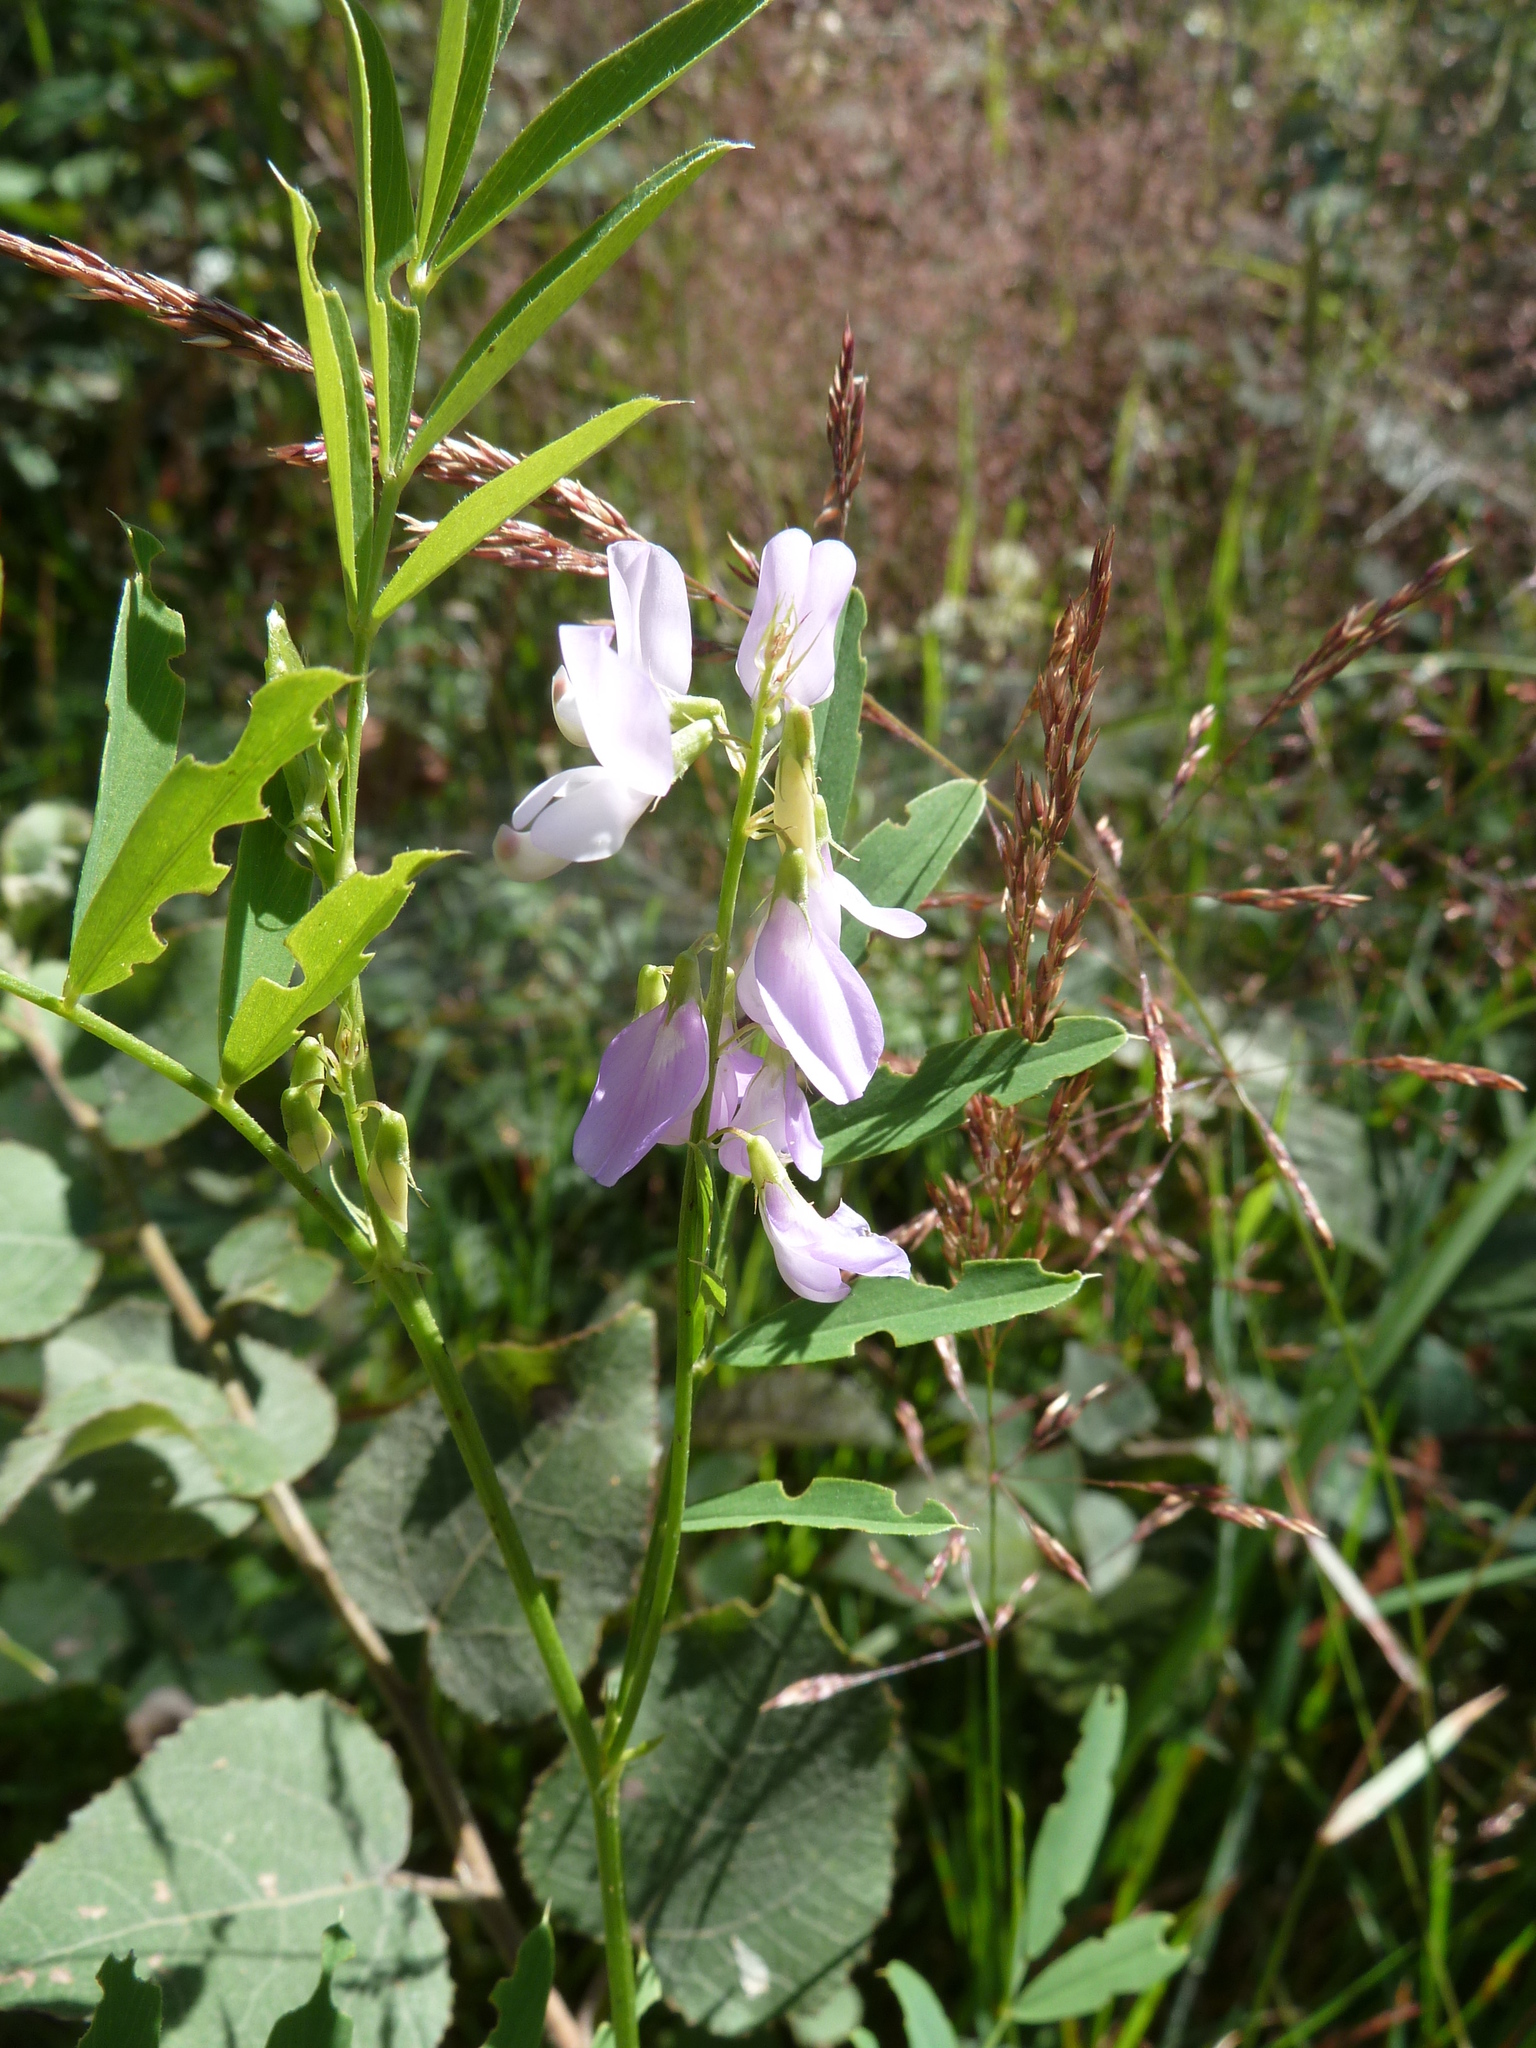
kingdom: Plantae
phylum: Tracheophyta
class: Magnoliopsida
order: Fabales
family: Fabaceae
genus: Galega
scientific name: Galega officinalis
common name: Goat's-rue
